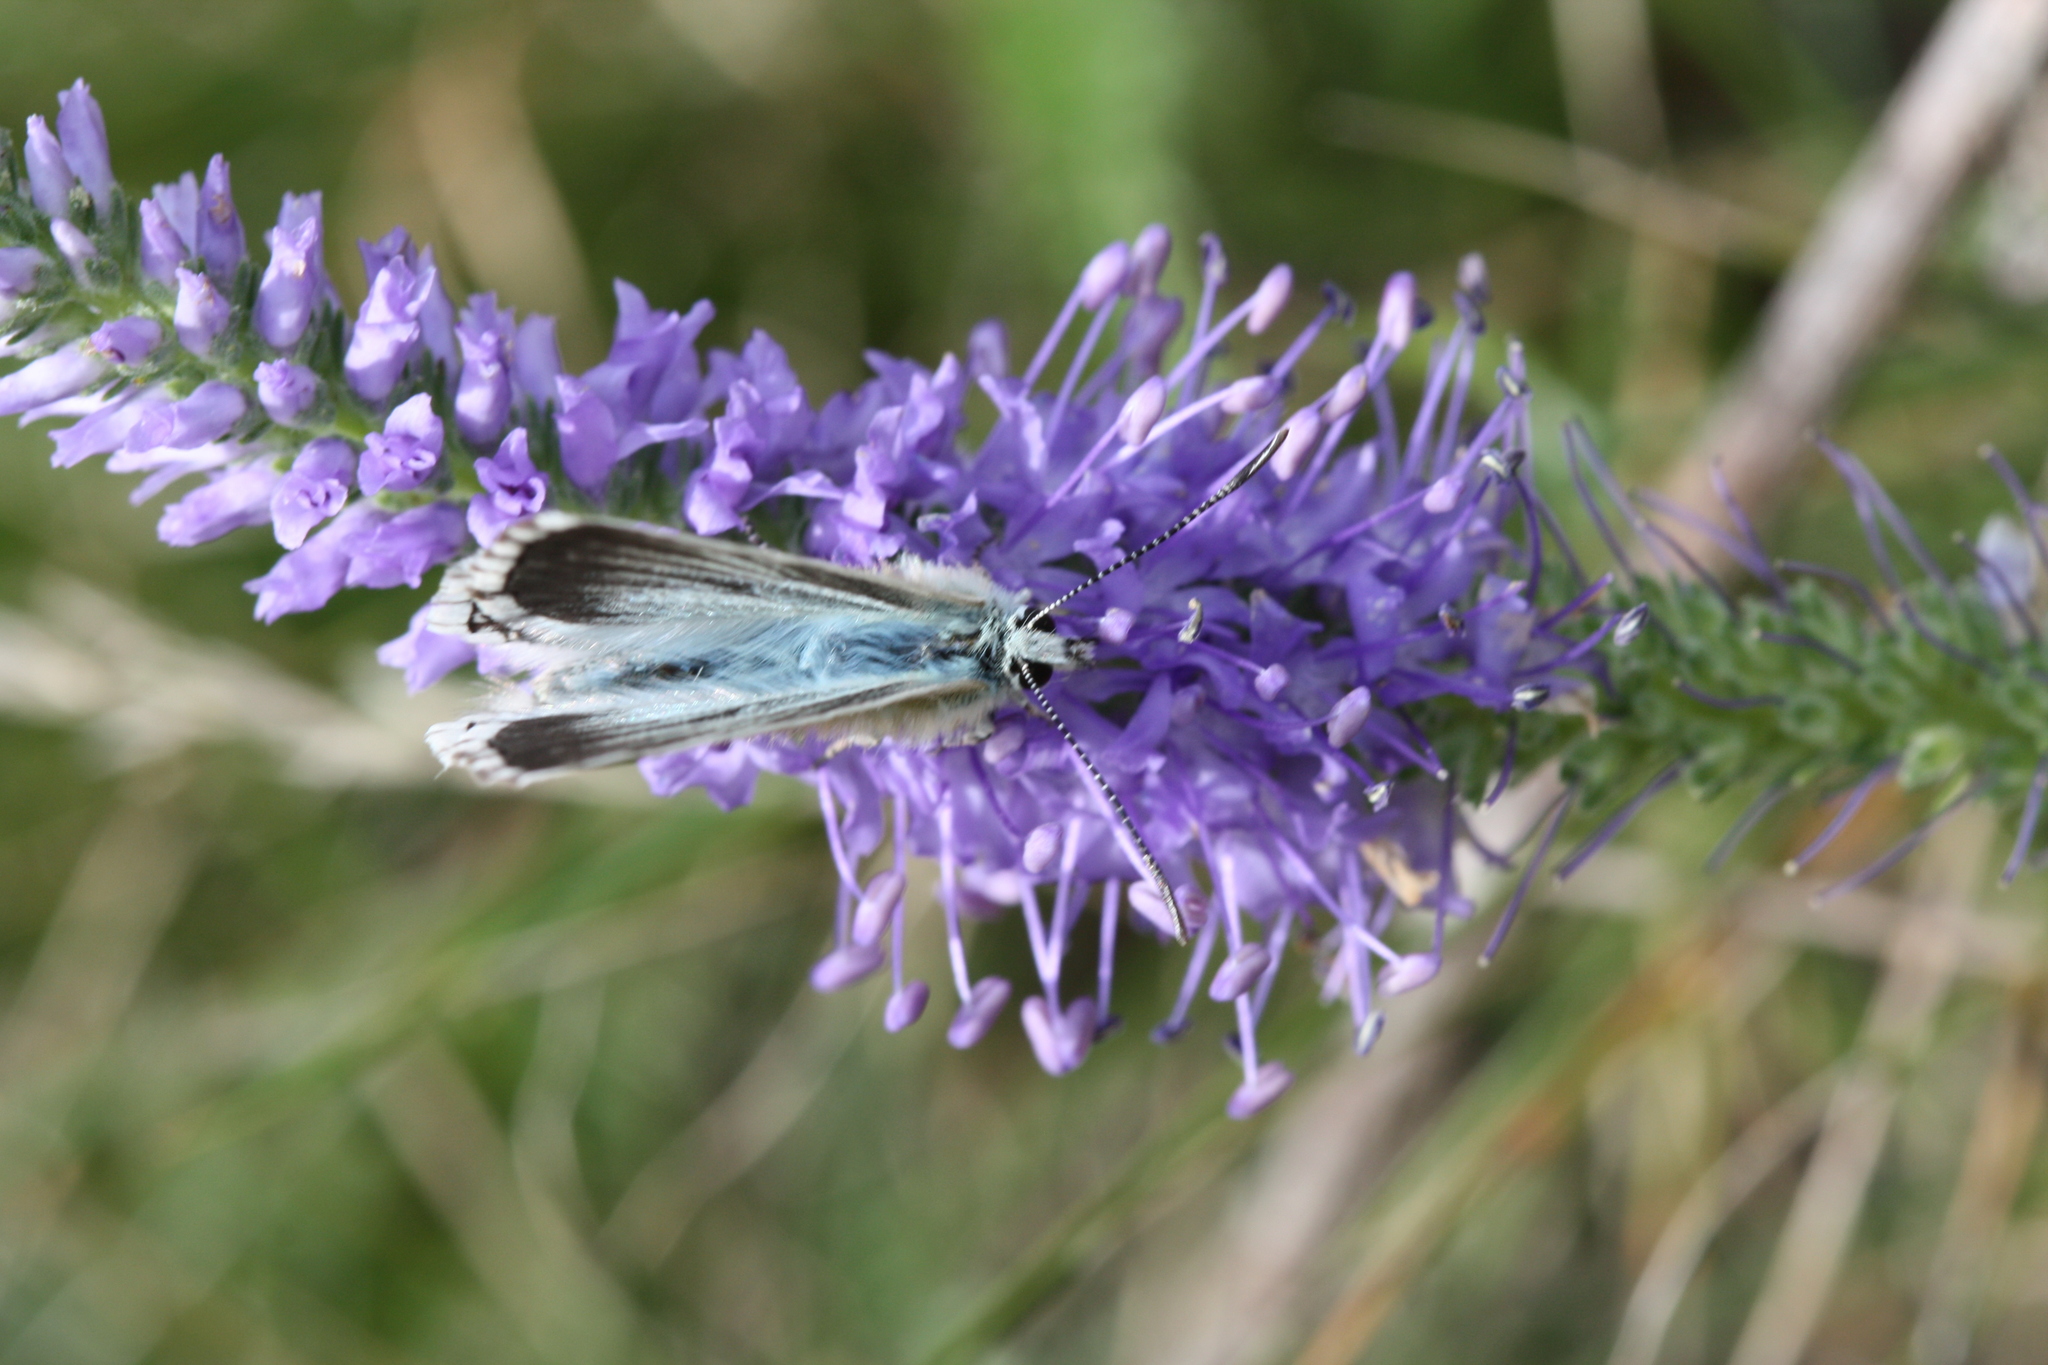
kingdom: Animalia
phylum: Arthropoda
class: Insecta
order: Lepidoptera
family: Lycaenidae
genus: Lysandra
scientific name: Lysandra coridon
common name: Chalkhill blue
